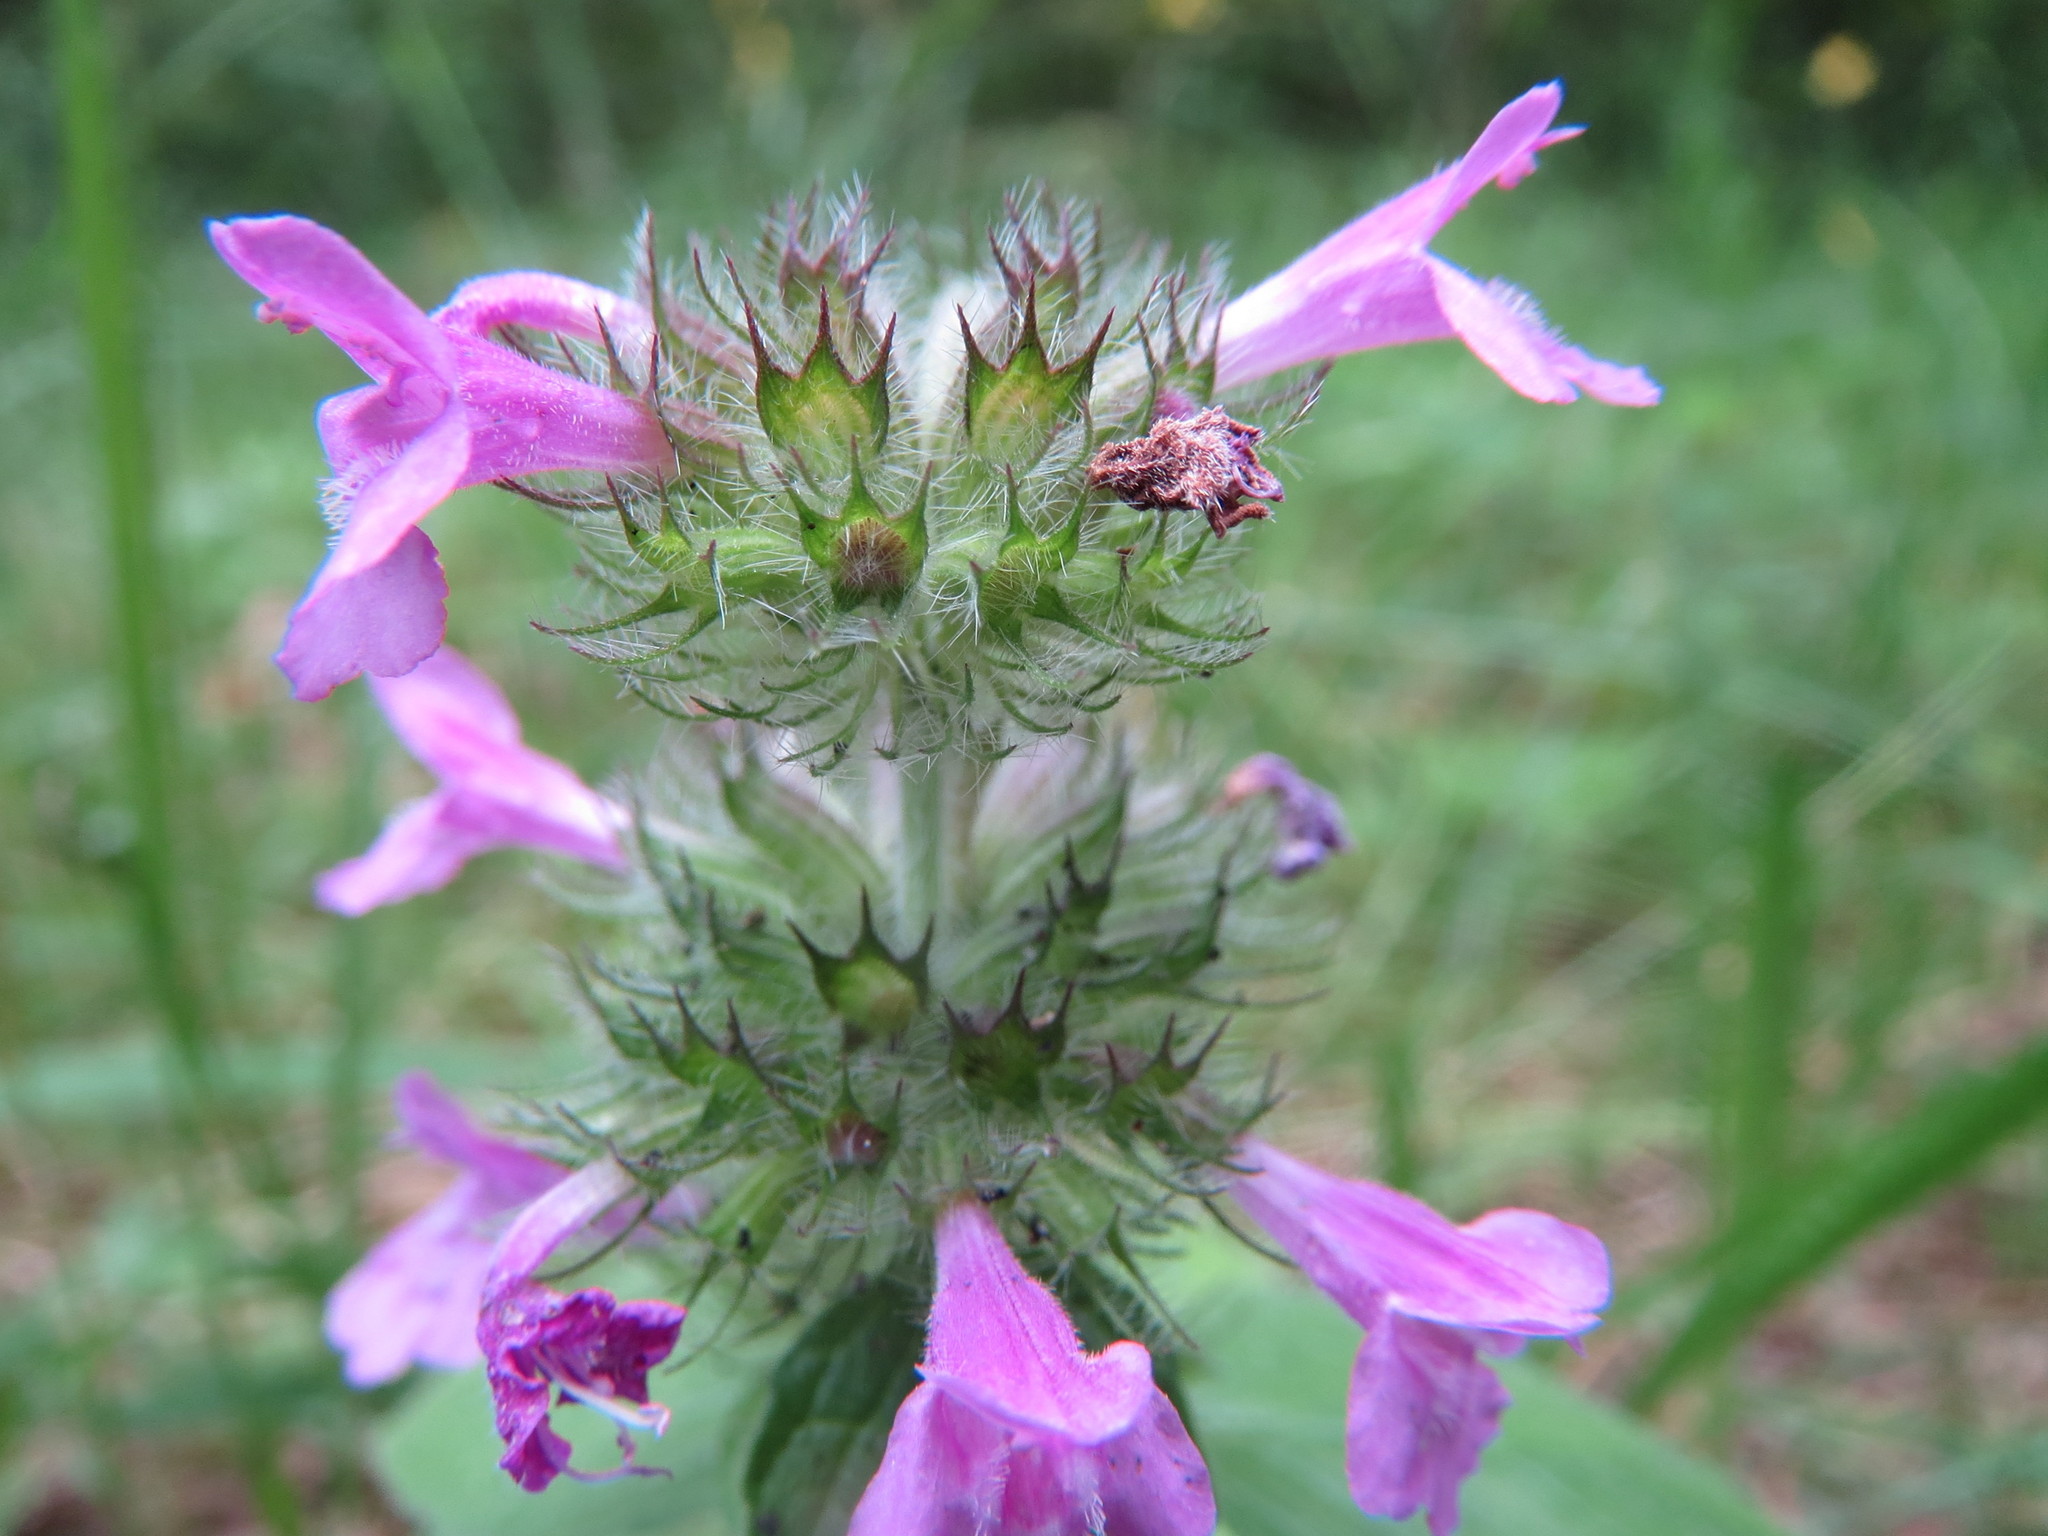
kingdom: Plantae
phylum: Tracheophyta
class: Magnoliopsida
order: Lamiales
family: Lamiaceae
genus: Clinopodium
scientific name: Clinopodium vulgare
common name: Wild basil
